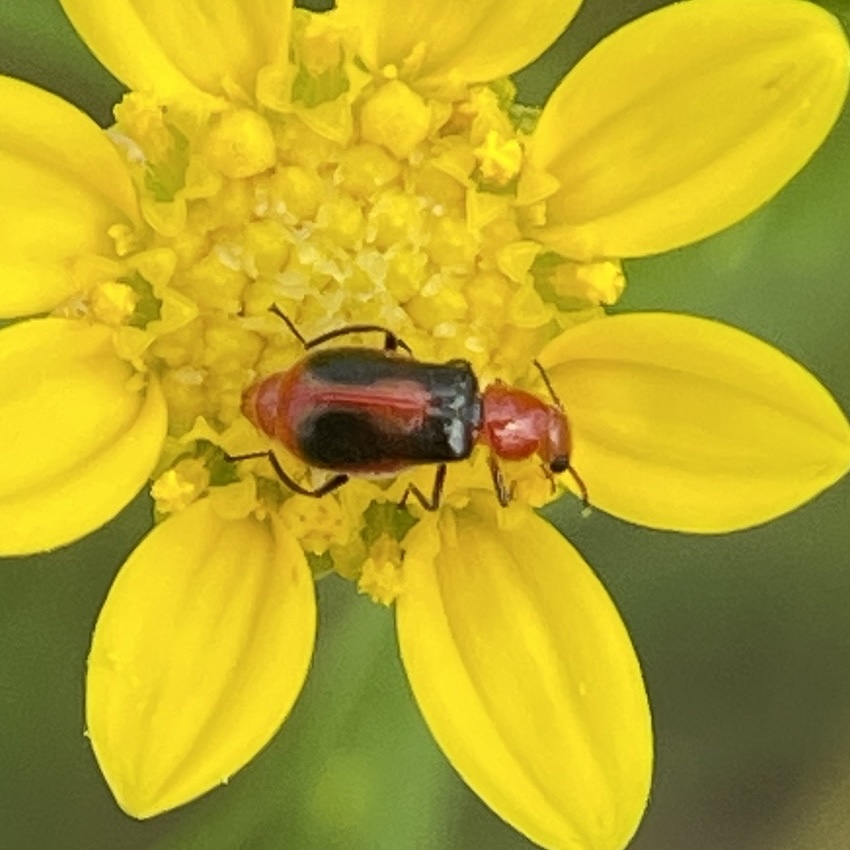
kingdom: Animalia
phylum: Arthropoda
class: Insecta
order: Coleoptera
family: Malachiidae
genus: Attalus
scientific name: Attalus
